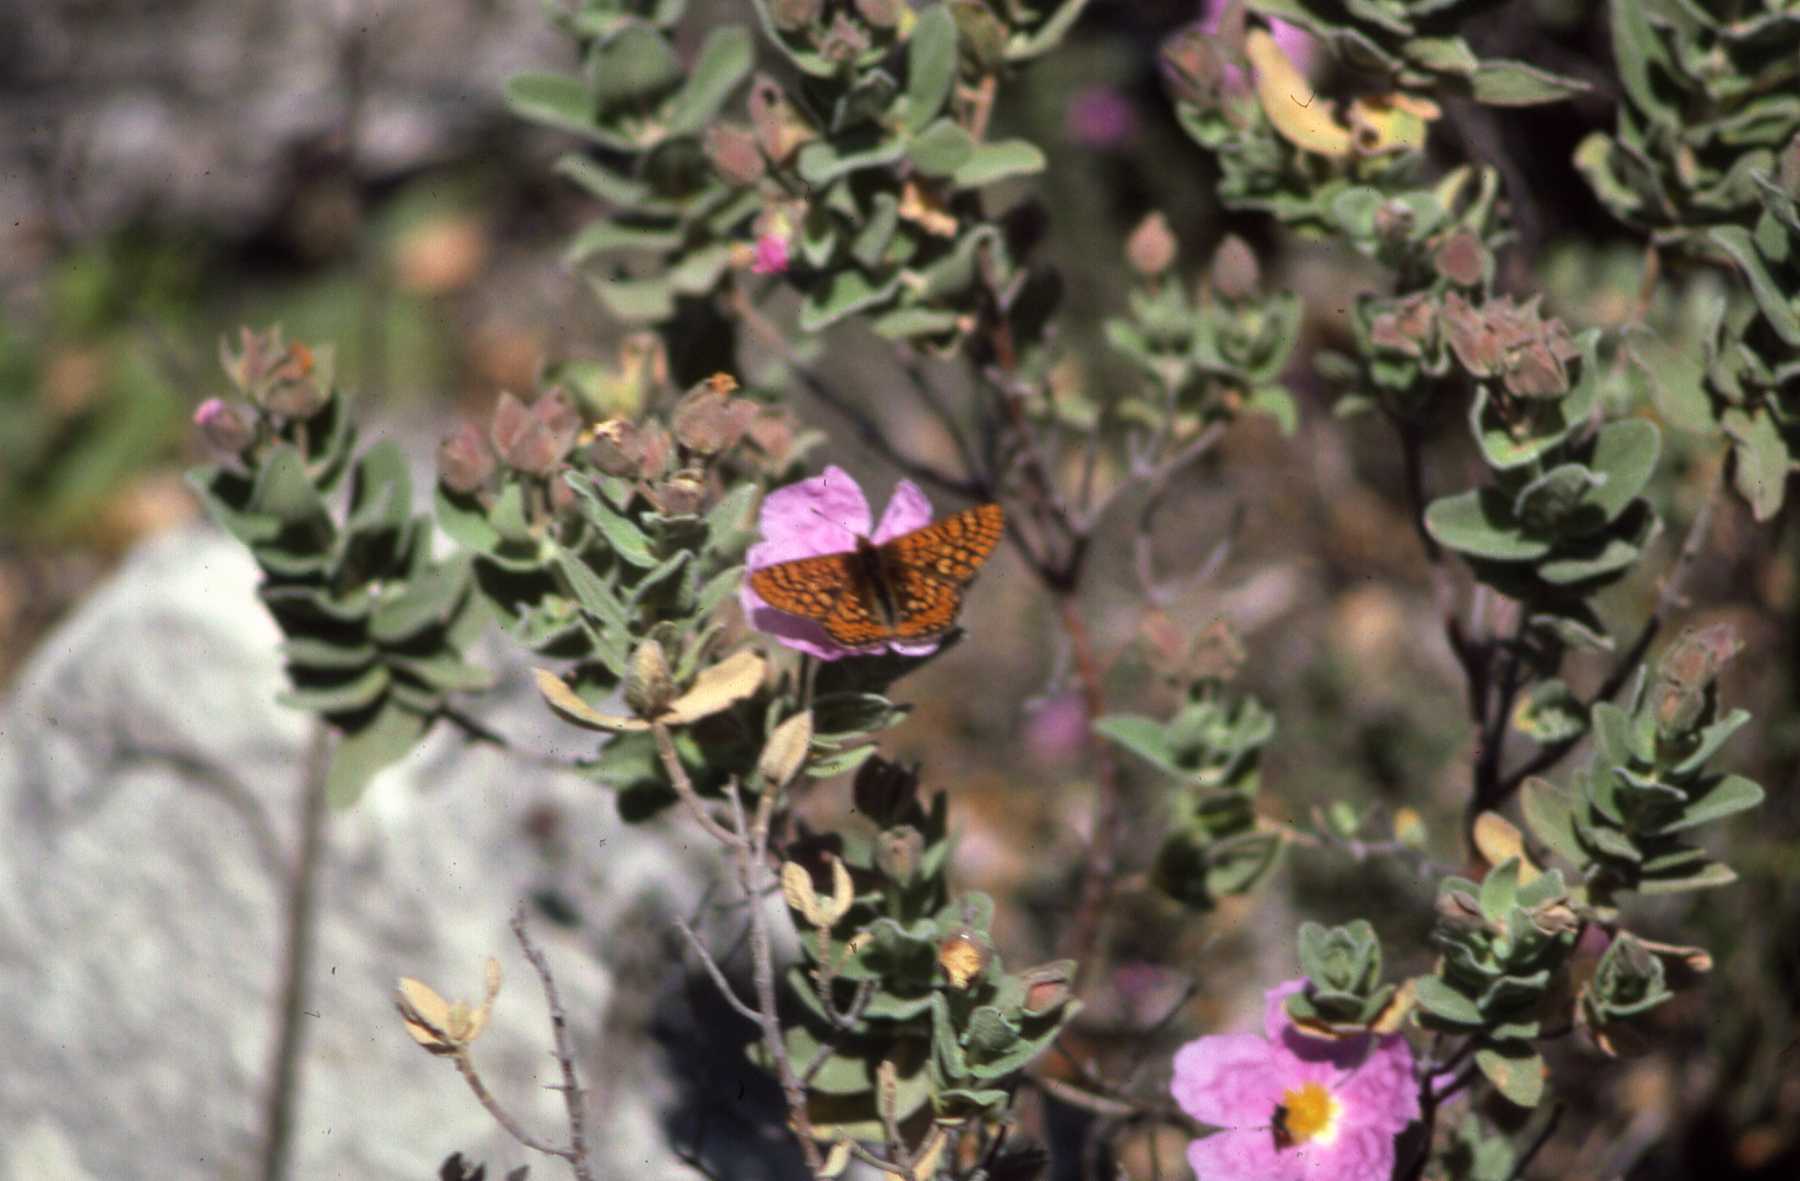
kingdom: Animalia
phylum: Arthropoda
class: Insecta
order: Lepidoptera
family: Nymphalidae
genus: Euphydryas
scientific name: Euphydryas aurinia
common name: Marsh fritillary
